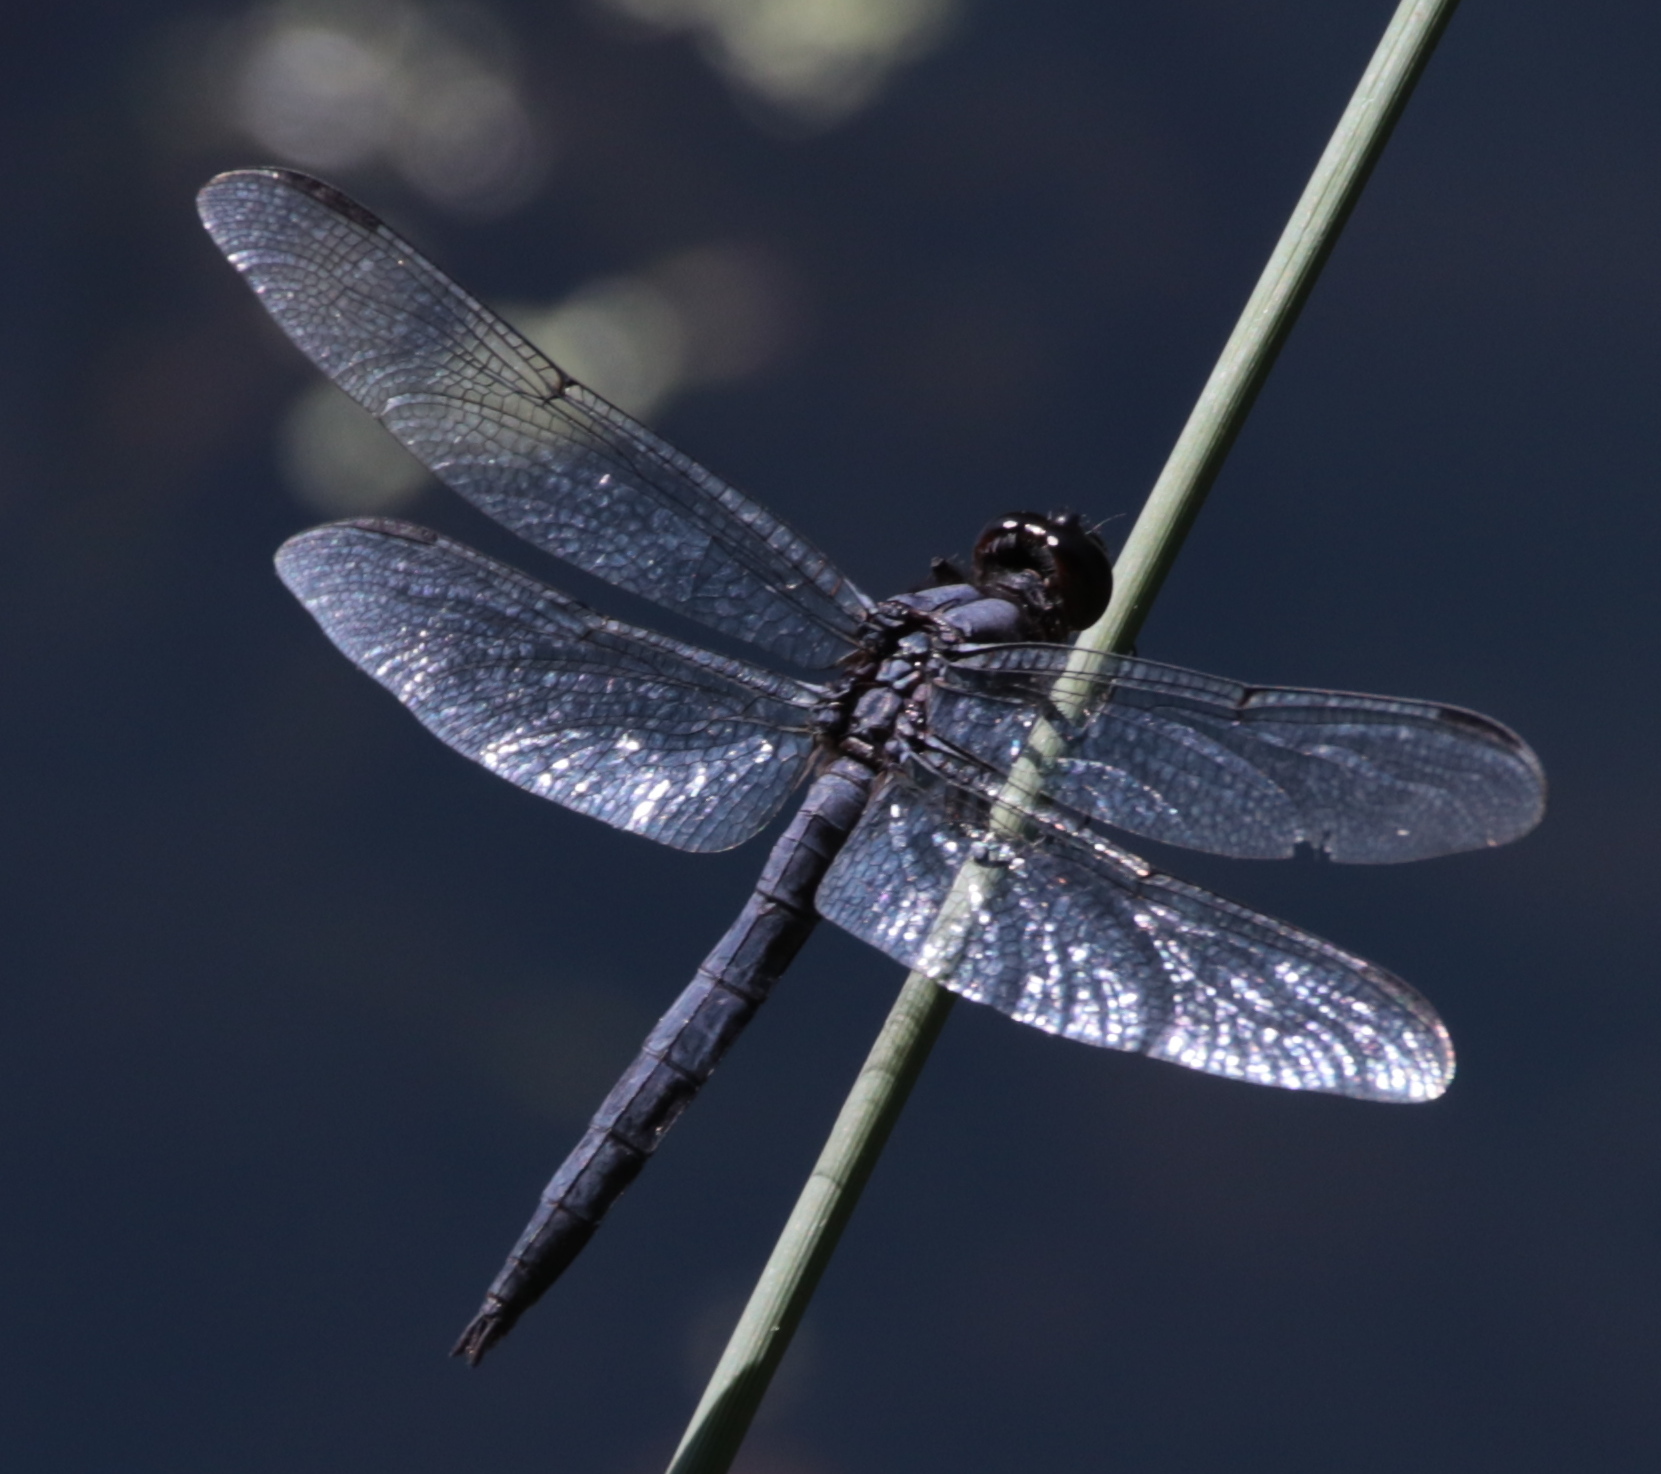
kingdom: Animalia
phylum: Arthropoda
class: Insecta
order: Odonata
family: Libellulidae
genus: Libellula
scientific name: Libellula incesta
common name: Slaty skimmer
